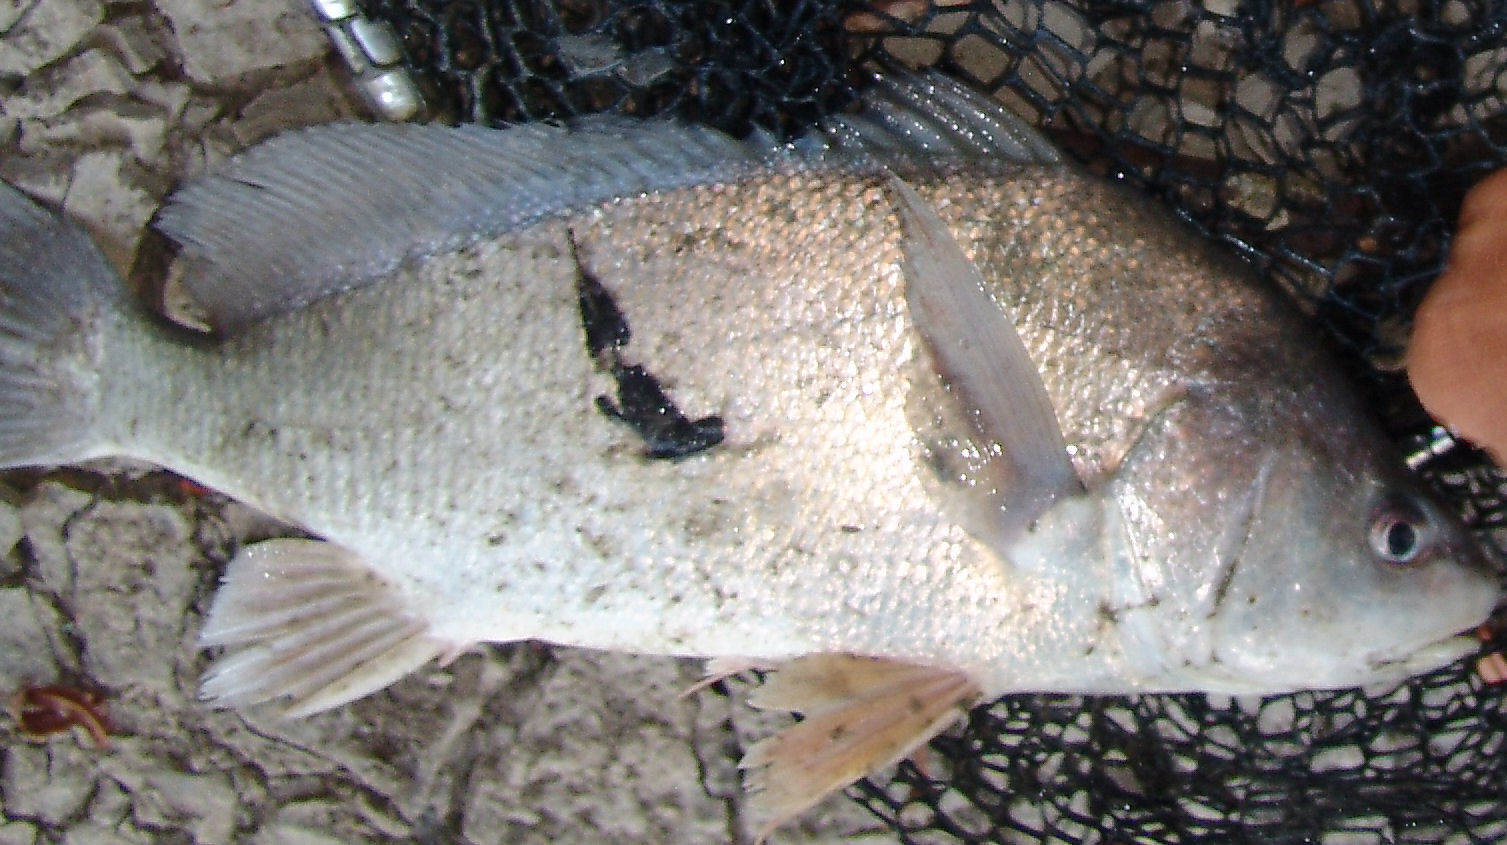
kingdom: Animalia
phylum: Chordata
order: Perciformes
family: Sciaenidae
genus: Aplodinotus
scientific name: Aplodinotus grunniens
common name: Freshwater drum
